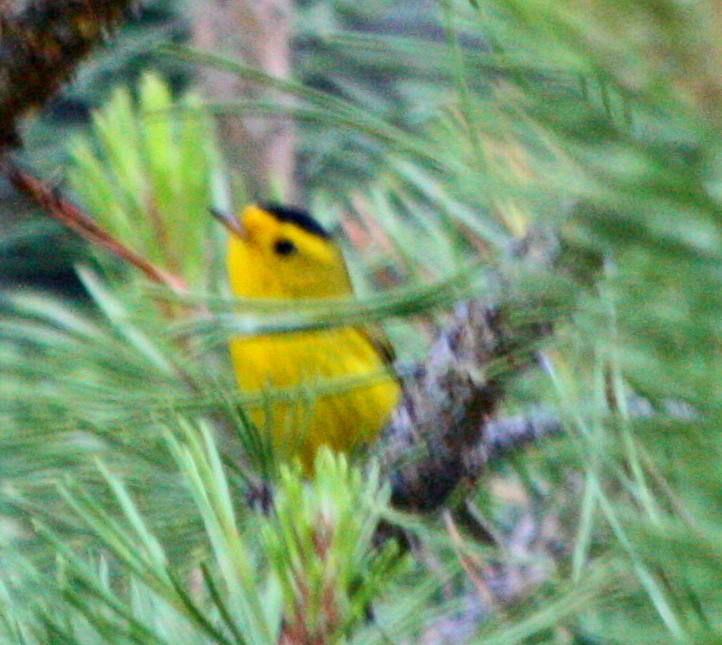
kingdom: Animalia
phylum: Chordata
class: Aves
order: Passeriformes
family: Parulidae
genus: Cardellina
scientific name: Cardellina pusilla
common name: Wilson's warbler
